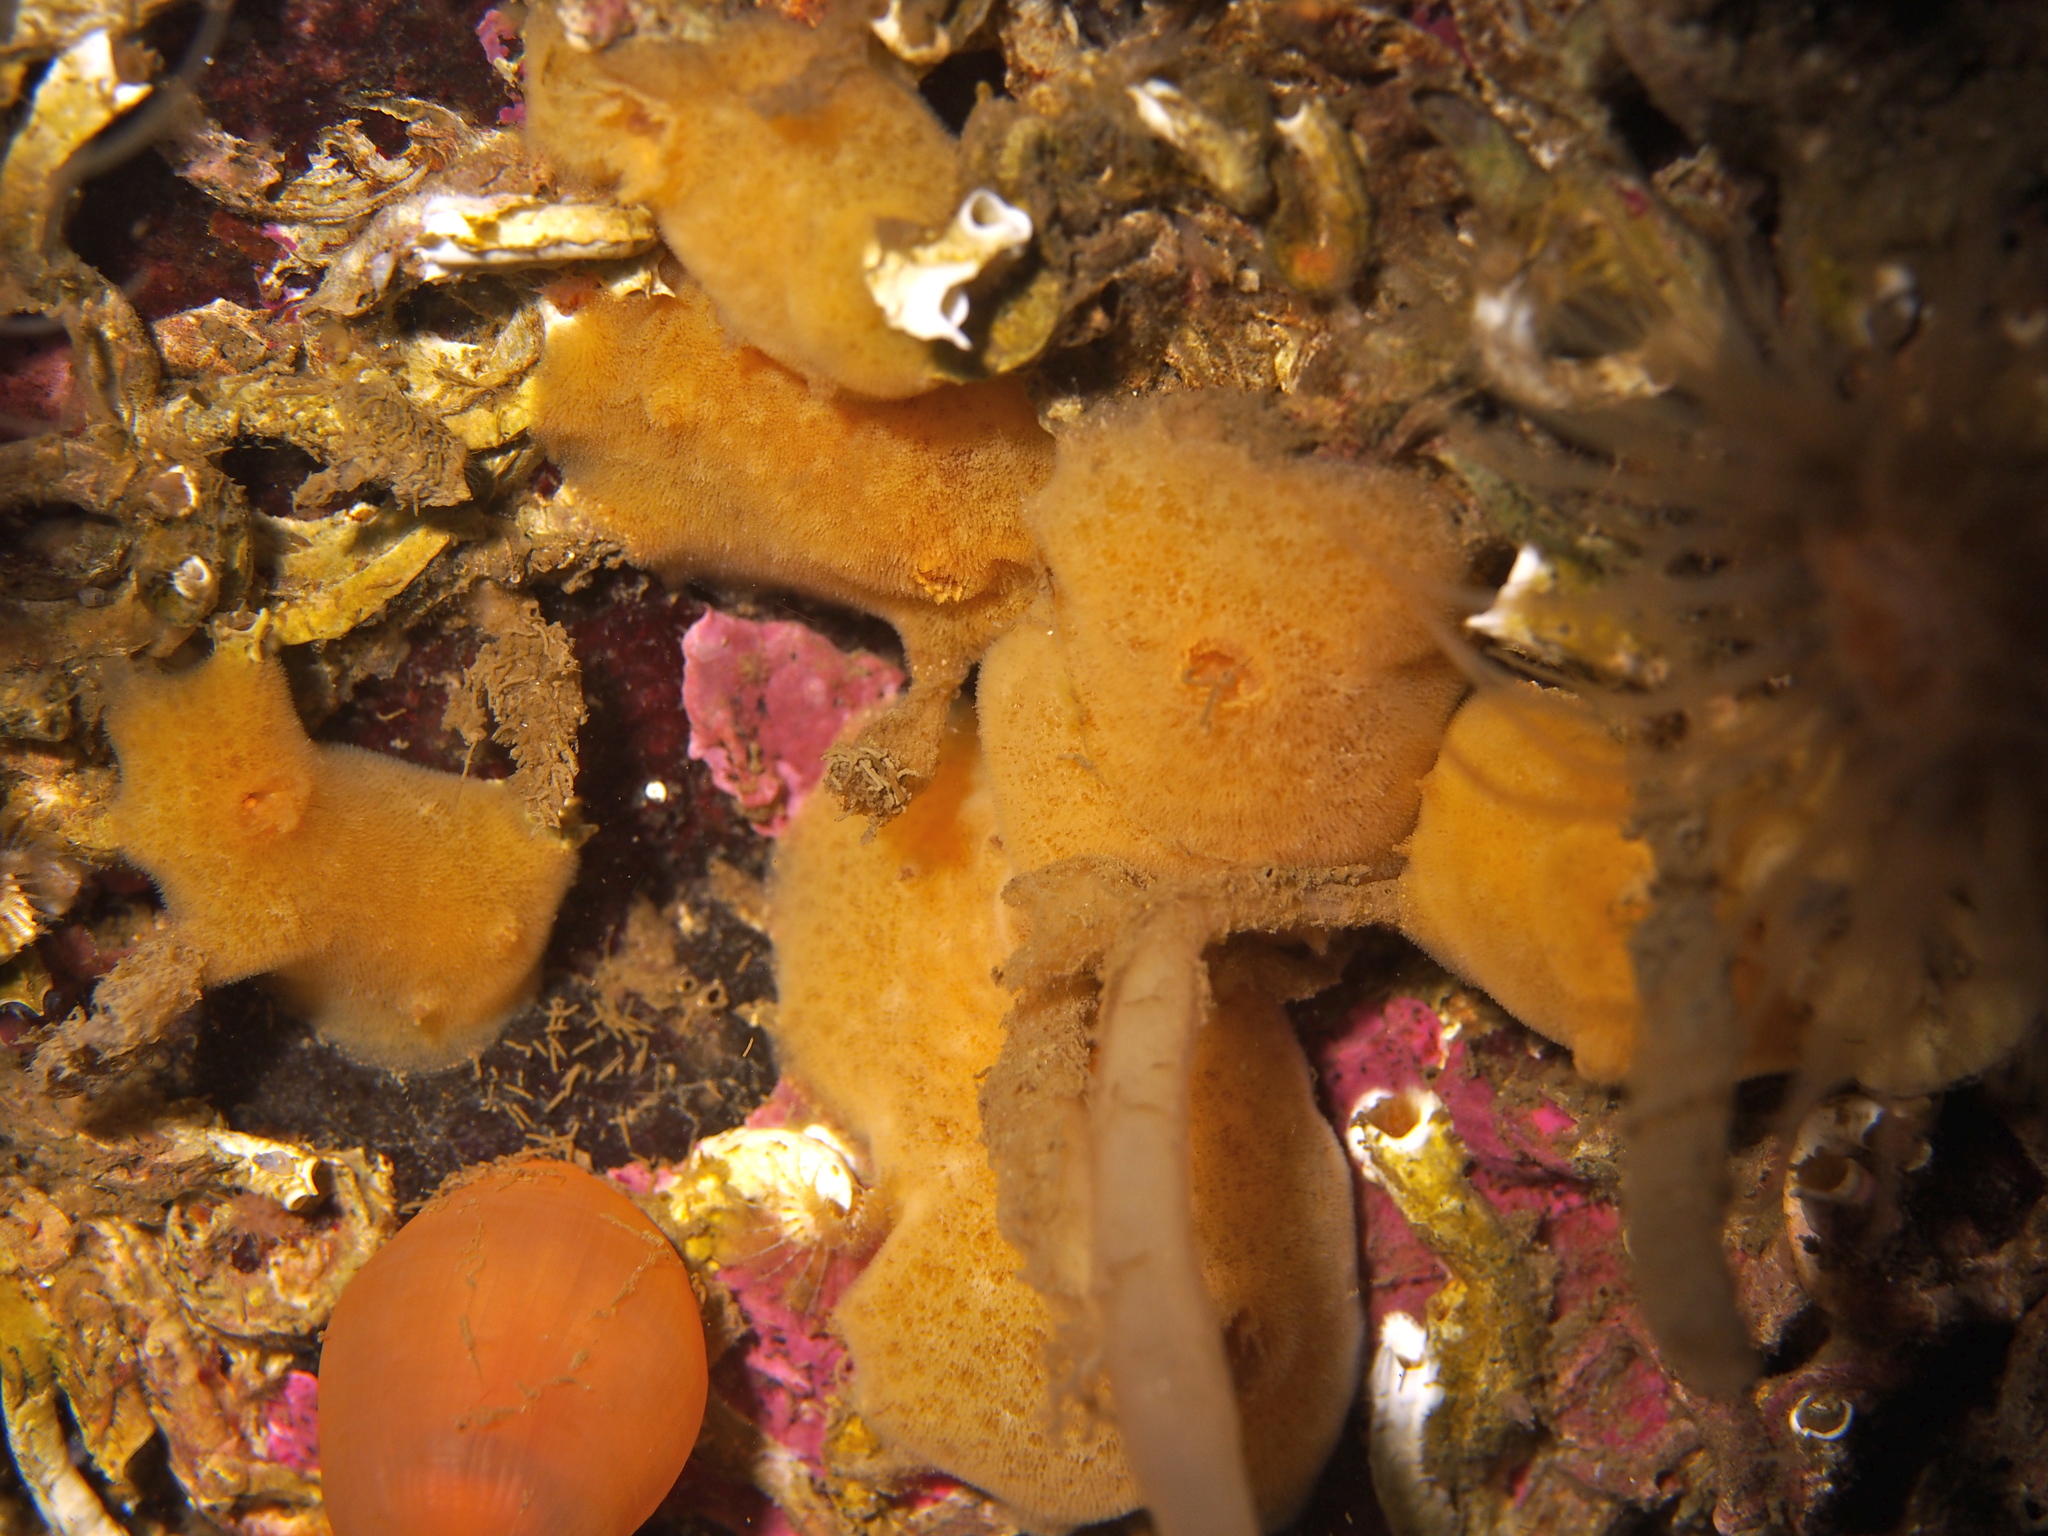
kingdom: Animalia
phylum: Mollusca
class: Gastropoda
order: Nudibranchia
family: Discodorididae
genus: Jorunna
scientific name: Jorunna tomentosa
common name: Grey sea slug
